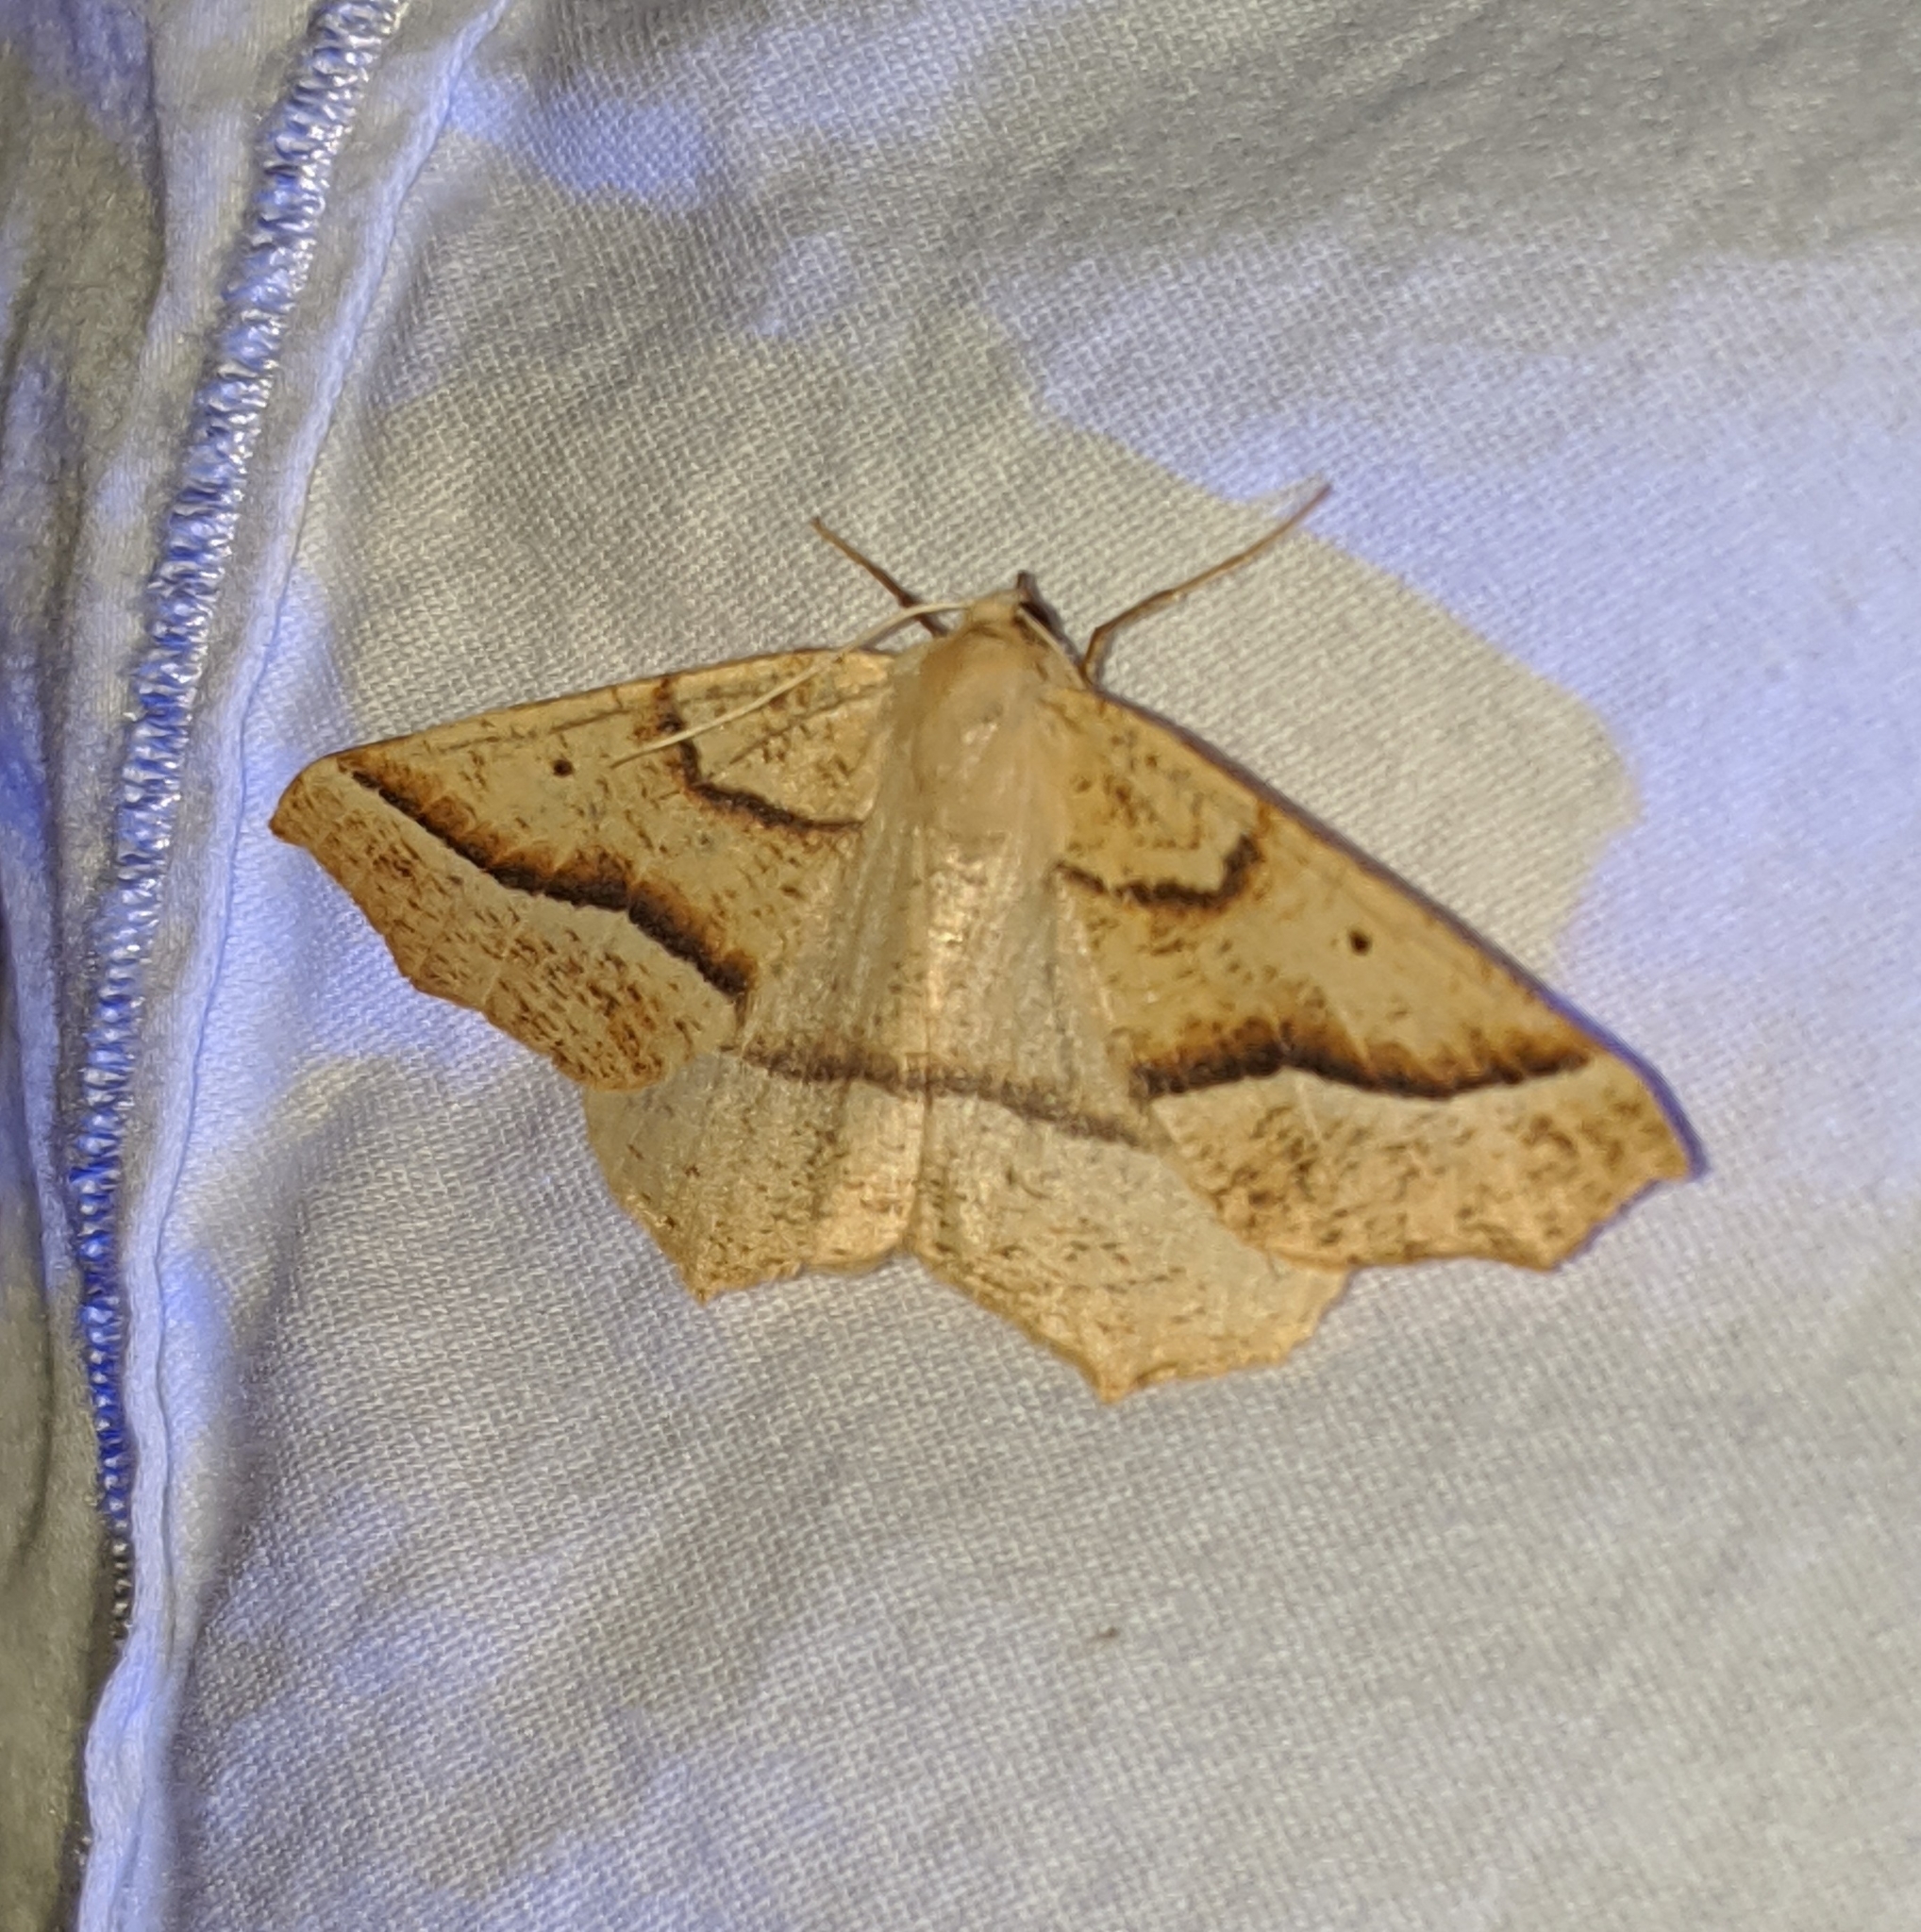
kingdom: Animalia
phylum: Arthropoda
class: Insecta
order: Lepidoptera
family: Geometridae
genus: Synaxis
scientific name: Synaxis jubararia
